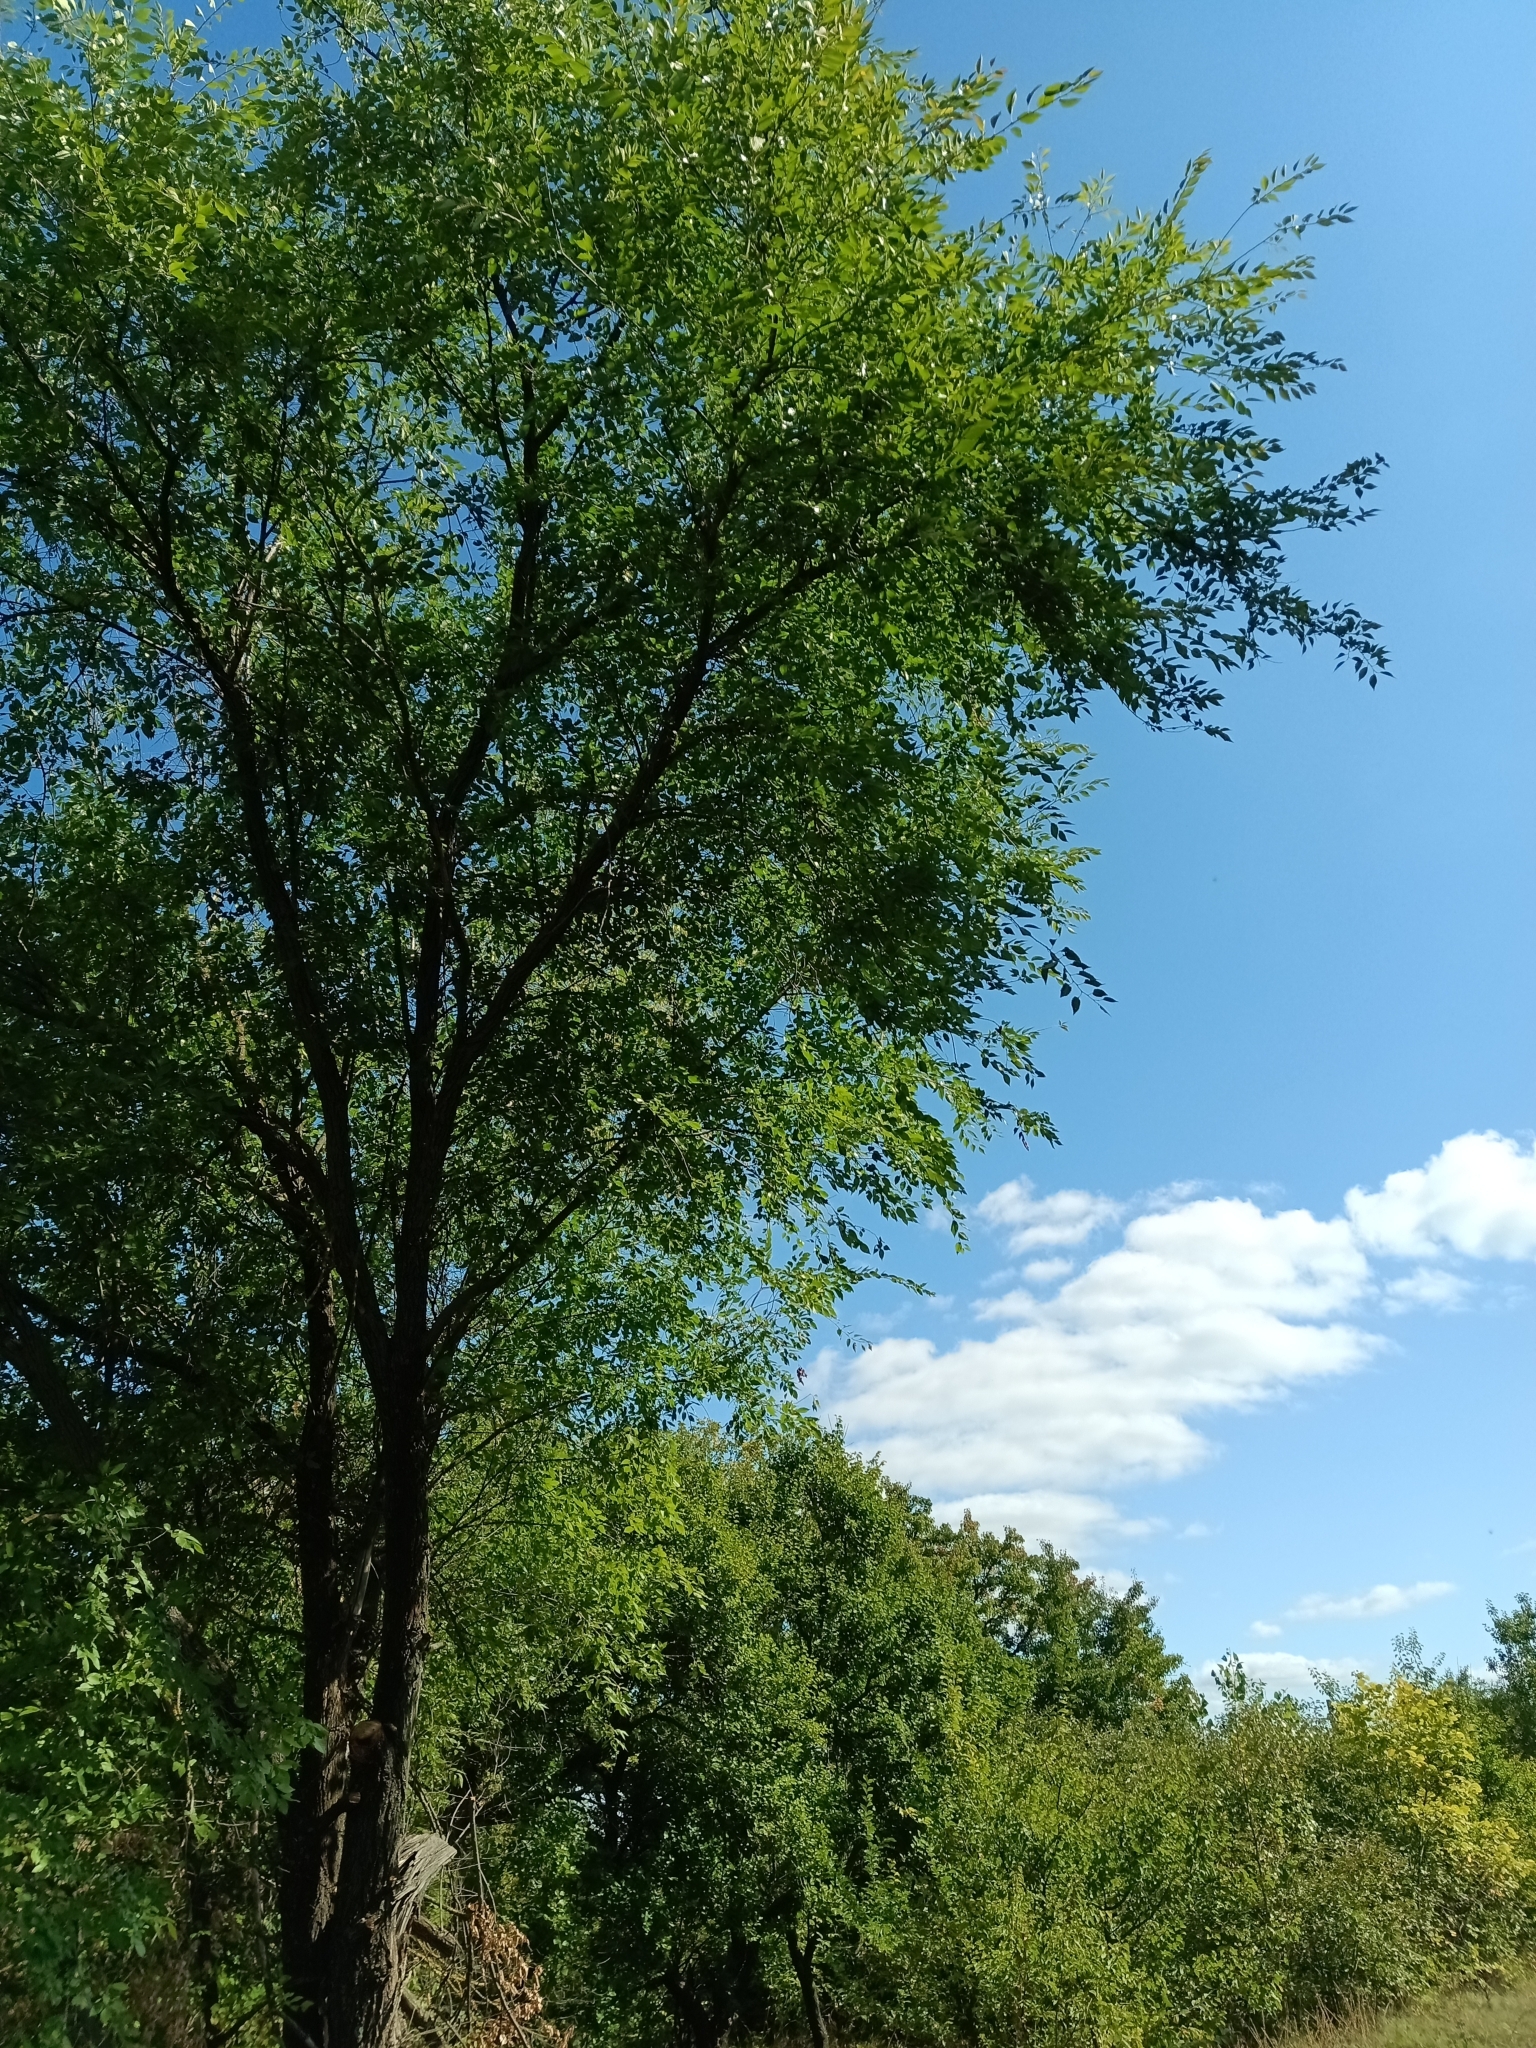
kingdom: Plantae
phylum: Tracheophyta
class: Magnoliopsida
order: Rosales
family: Ulmaceae
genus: Ulmus
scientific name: Ulmus pumila
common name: Siberian elm
